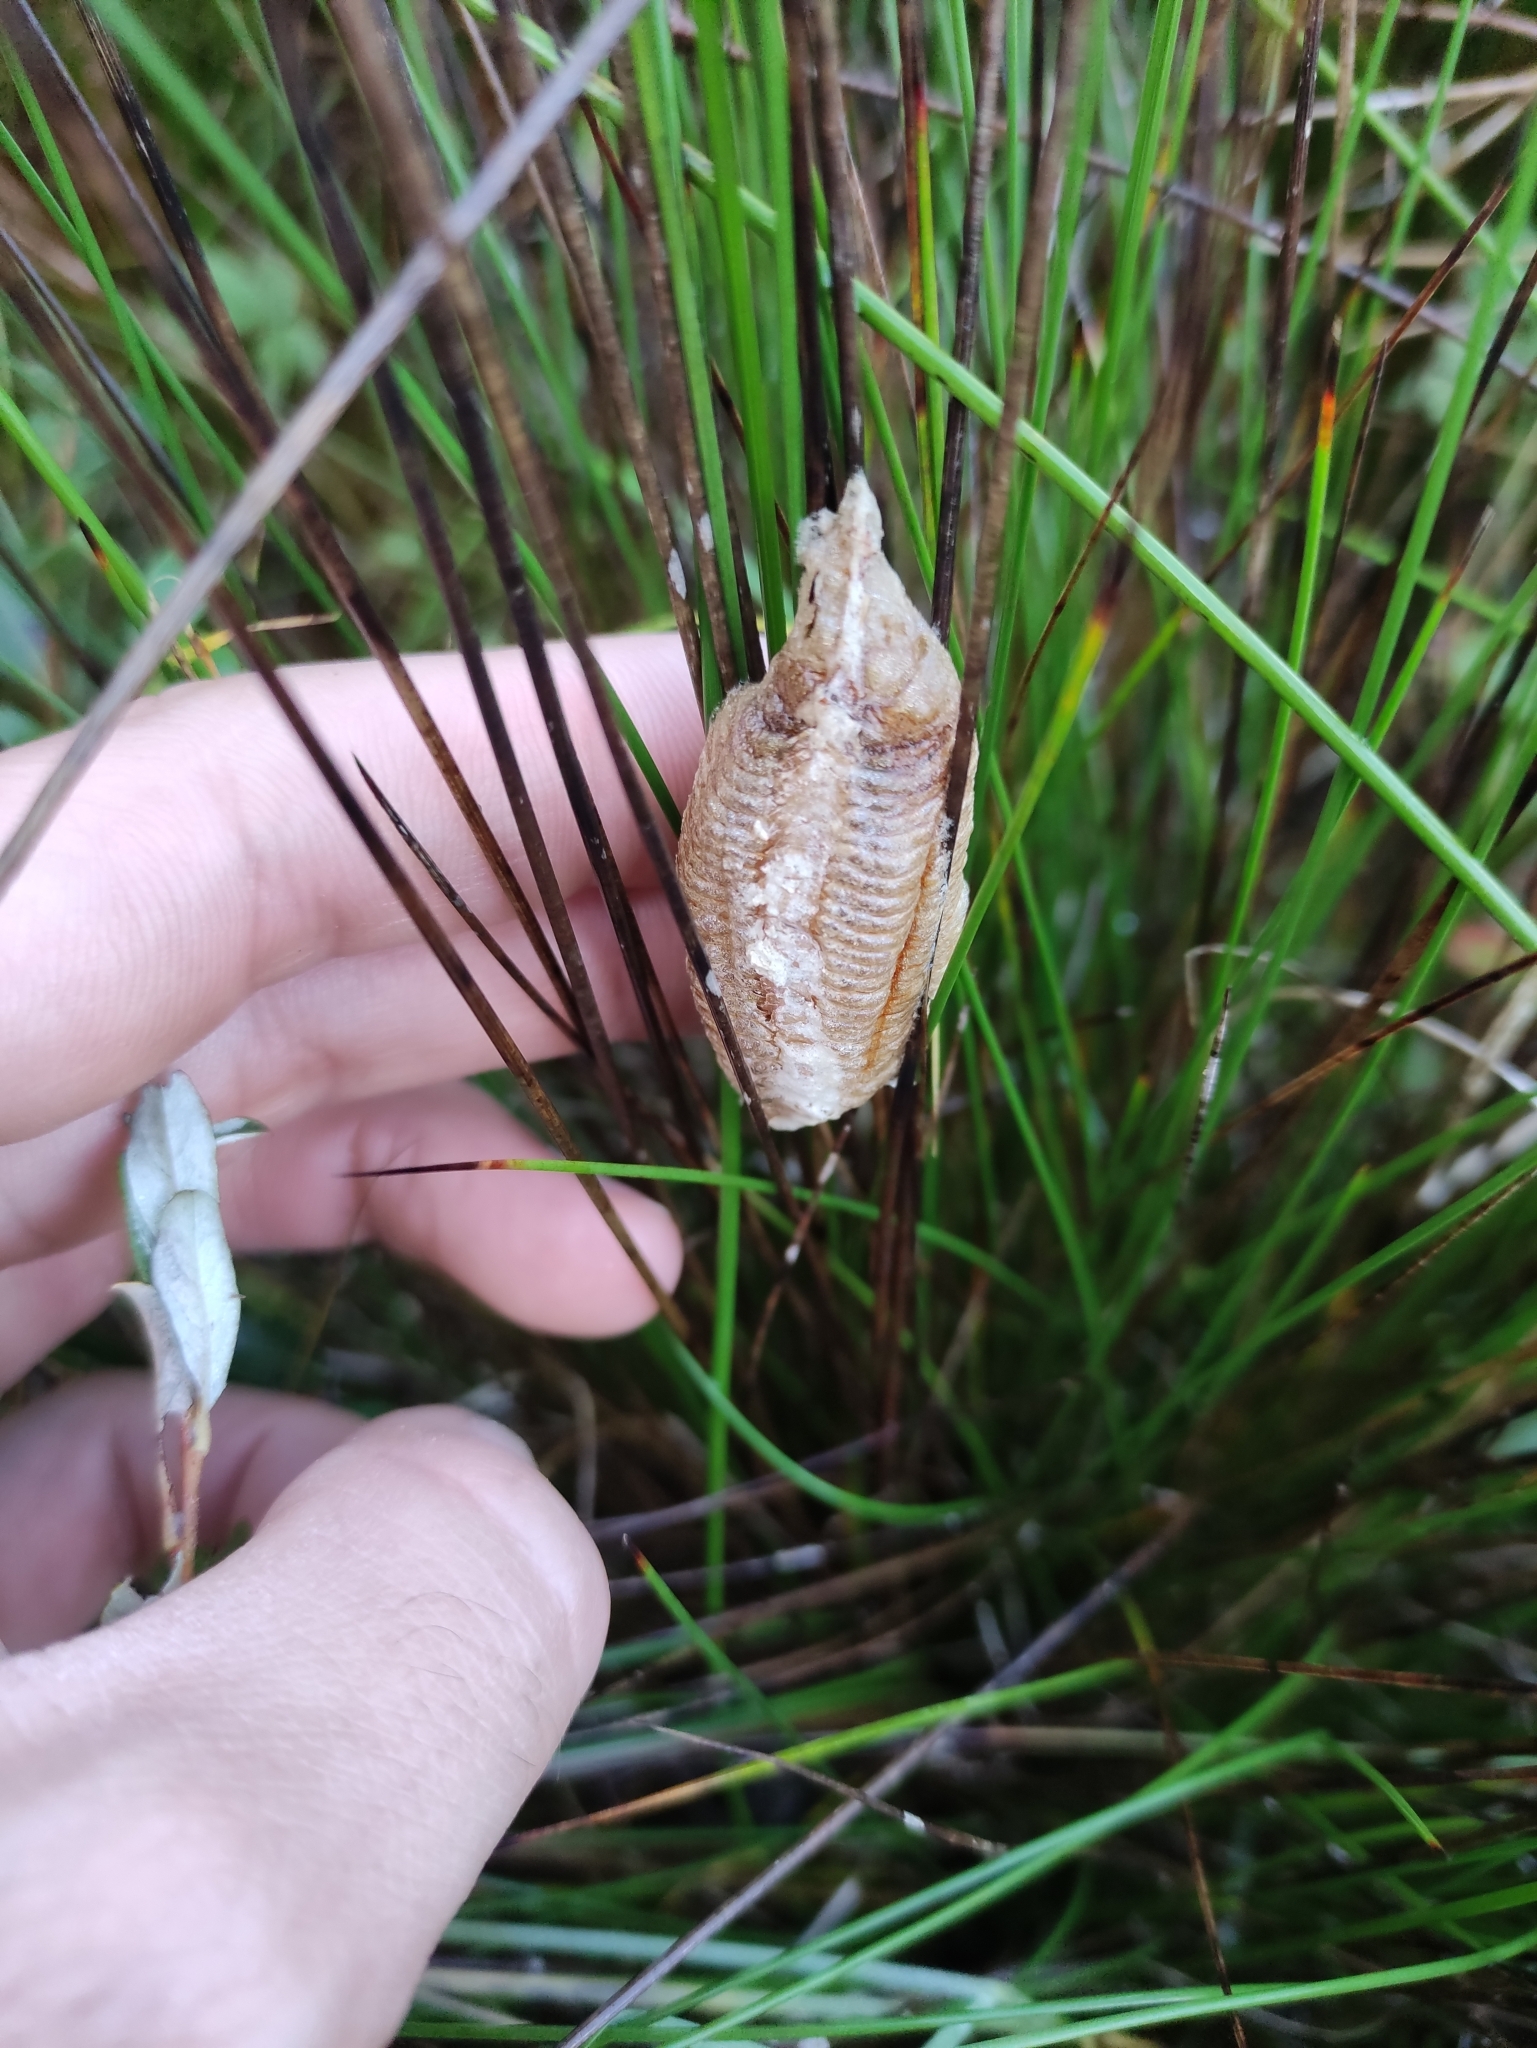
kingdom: Animalia
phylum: Arthropoda
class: Insecta
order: Mantodea
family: Mantidae
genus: Mantis
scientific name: Mantis religiosa
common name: Praying mantis
